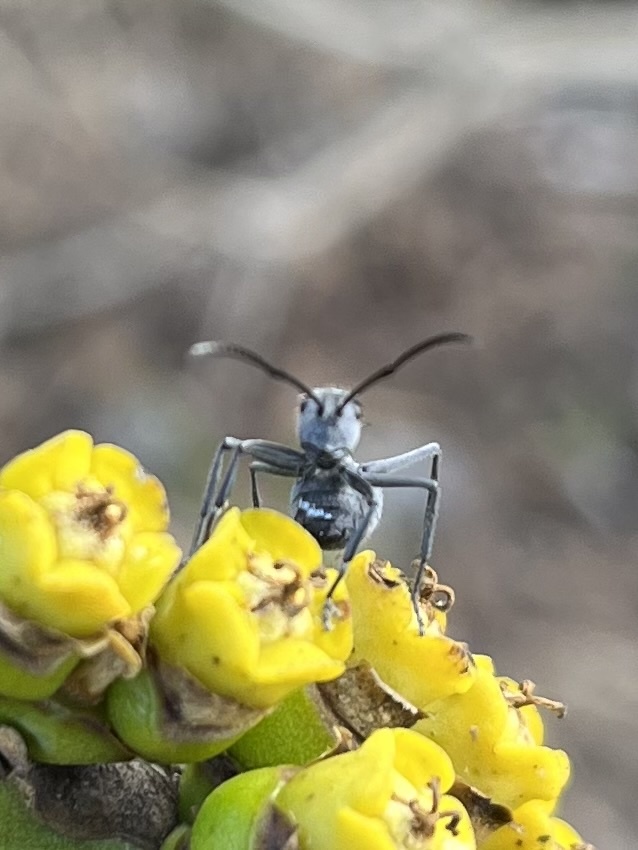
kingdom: Animalia
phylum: Arthropoda
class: Insecta
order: Hymenoptera
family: Formicidae
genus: Polyrhachis
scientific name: Polyrhachis schistacea
